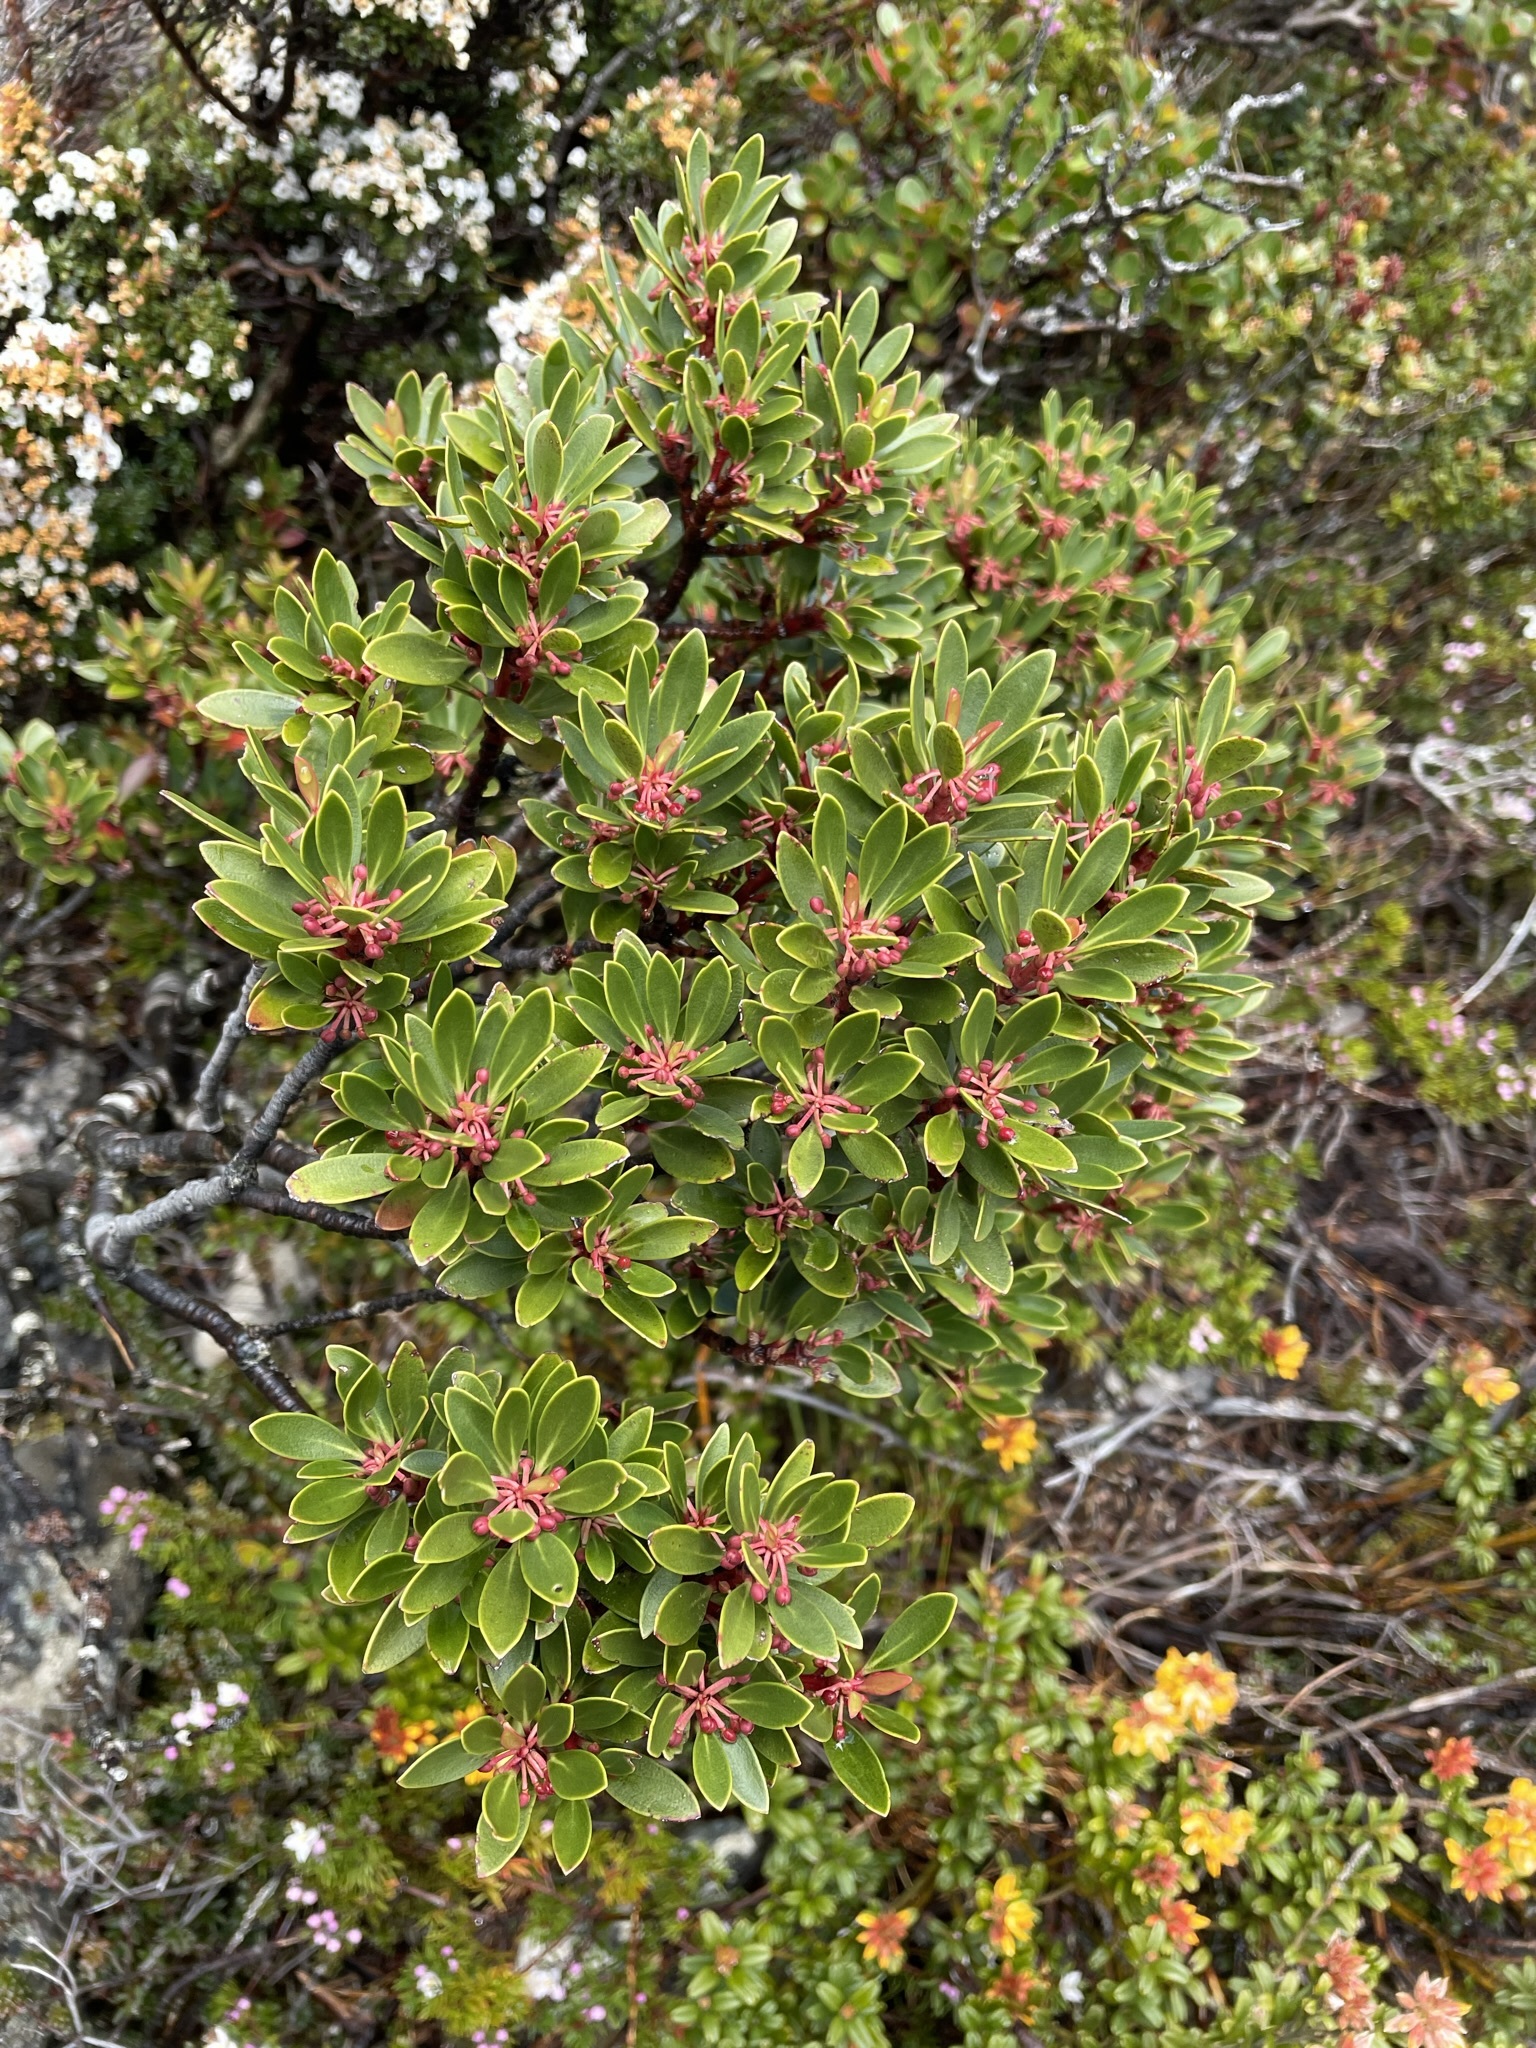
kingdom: Plantae
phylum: Tracheophyta
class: Magnoliopsida
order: Canellales
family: Winteraceae
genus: Drimys
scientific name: Drimys aromatica
